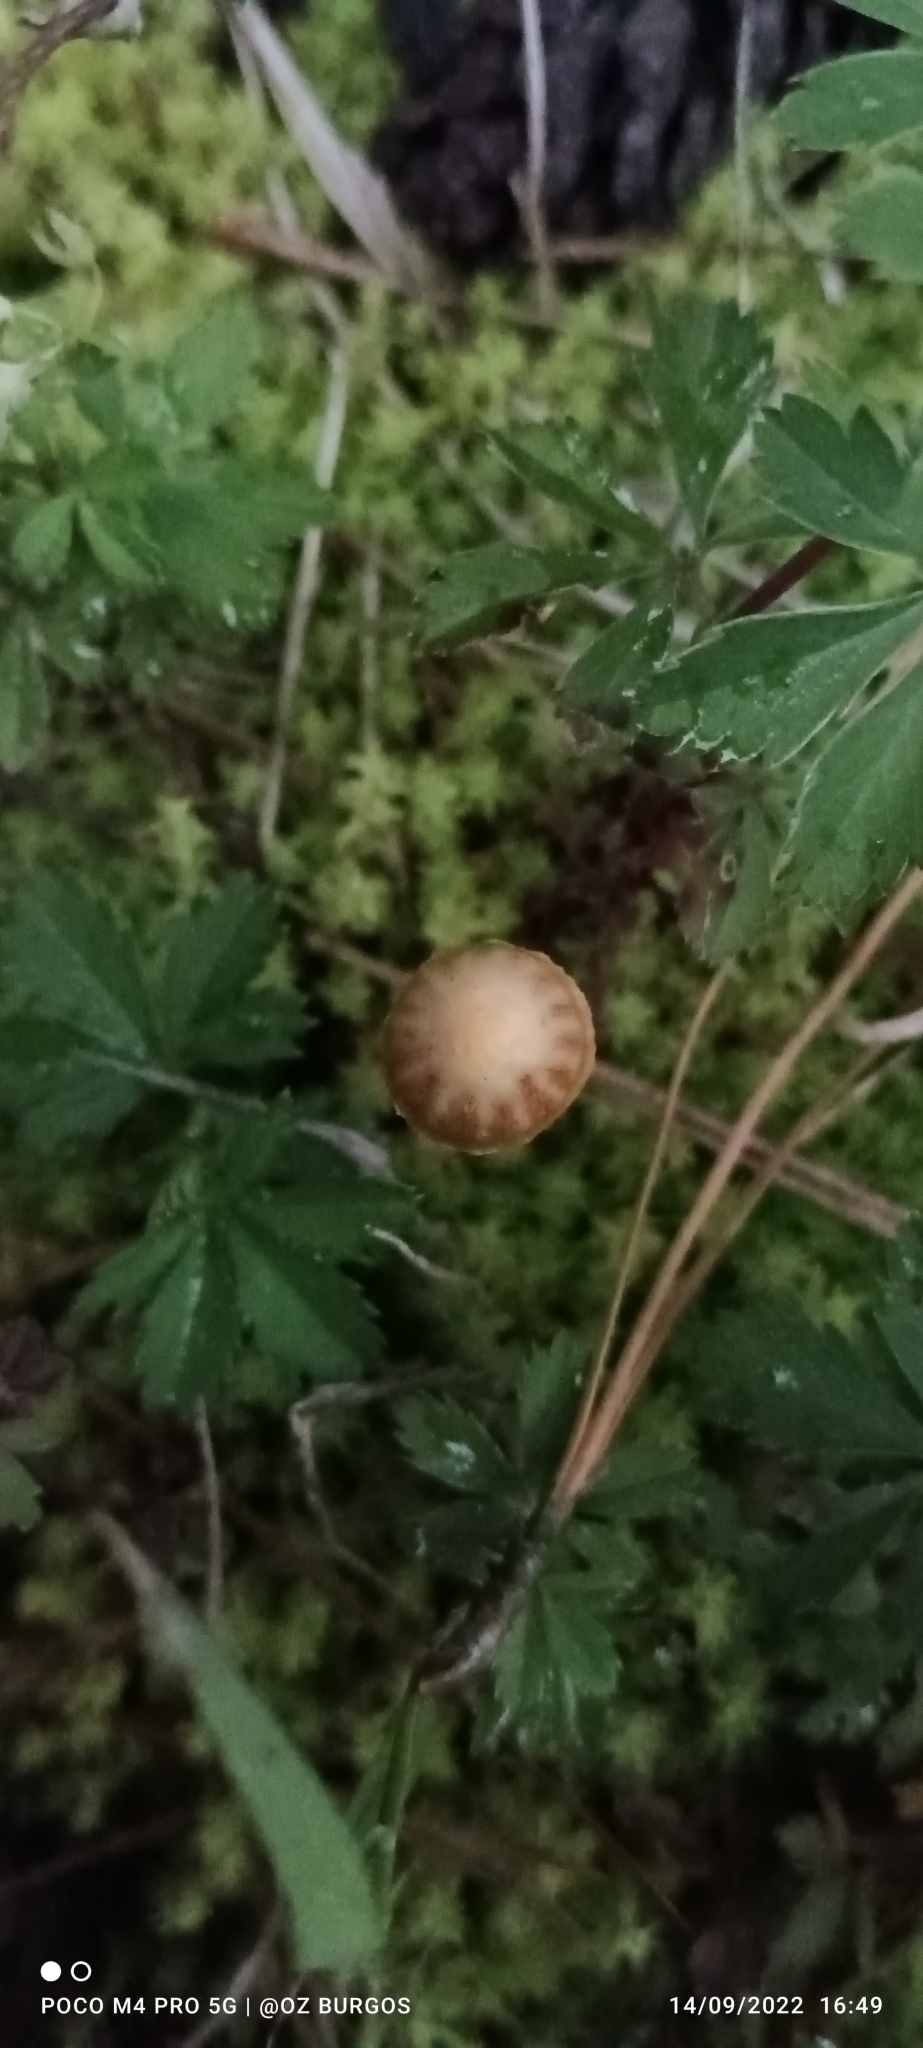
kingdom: Fungi
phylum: Basidiomycota
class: Agaricomycetes
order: Agaricales
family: Strophariaceae
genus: Deconica
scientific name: Deconica montana
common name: Mountain moss deconica
